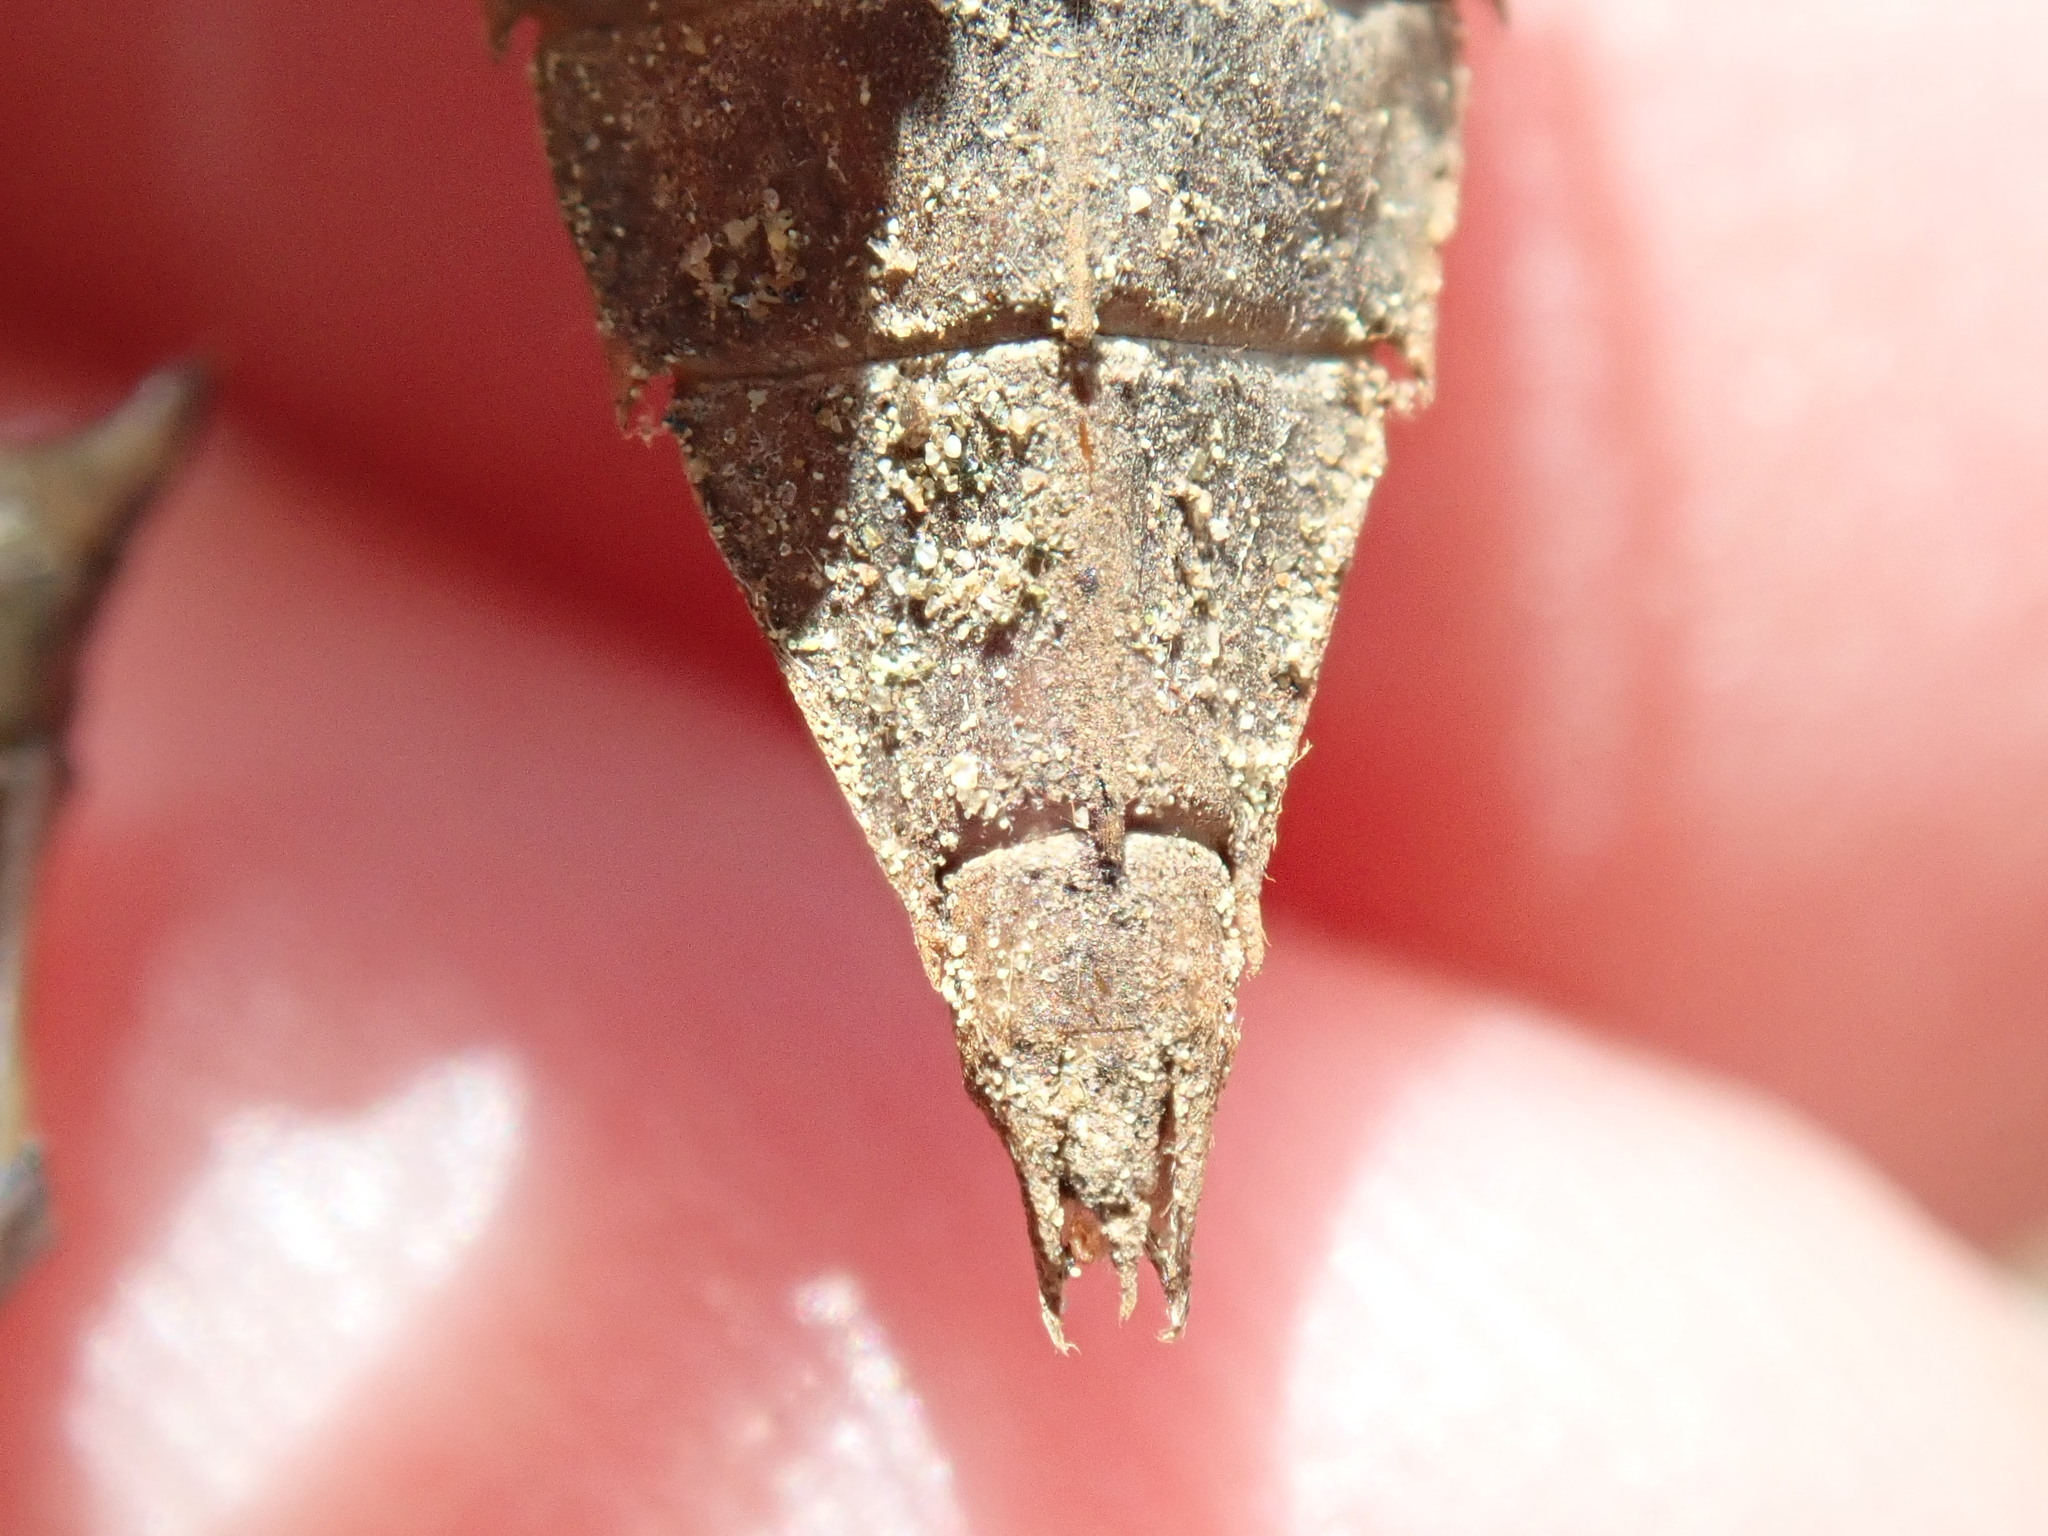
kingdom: Animalia
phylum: Arthropoda
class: Insecta
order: Odonata
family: Gomphidae
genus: Dromogomphus
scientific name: Dromogomphus spinosus
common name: Black-shouldered spinyleg
